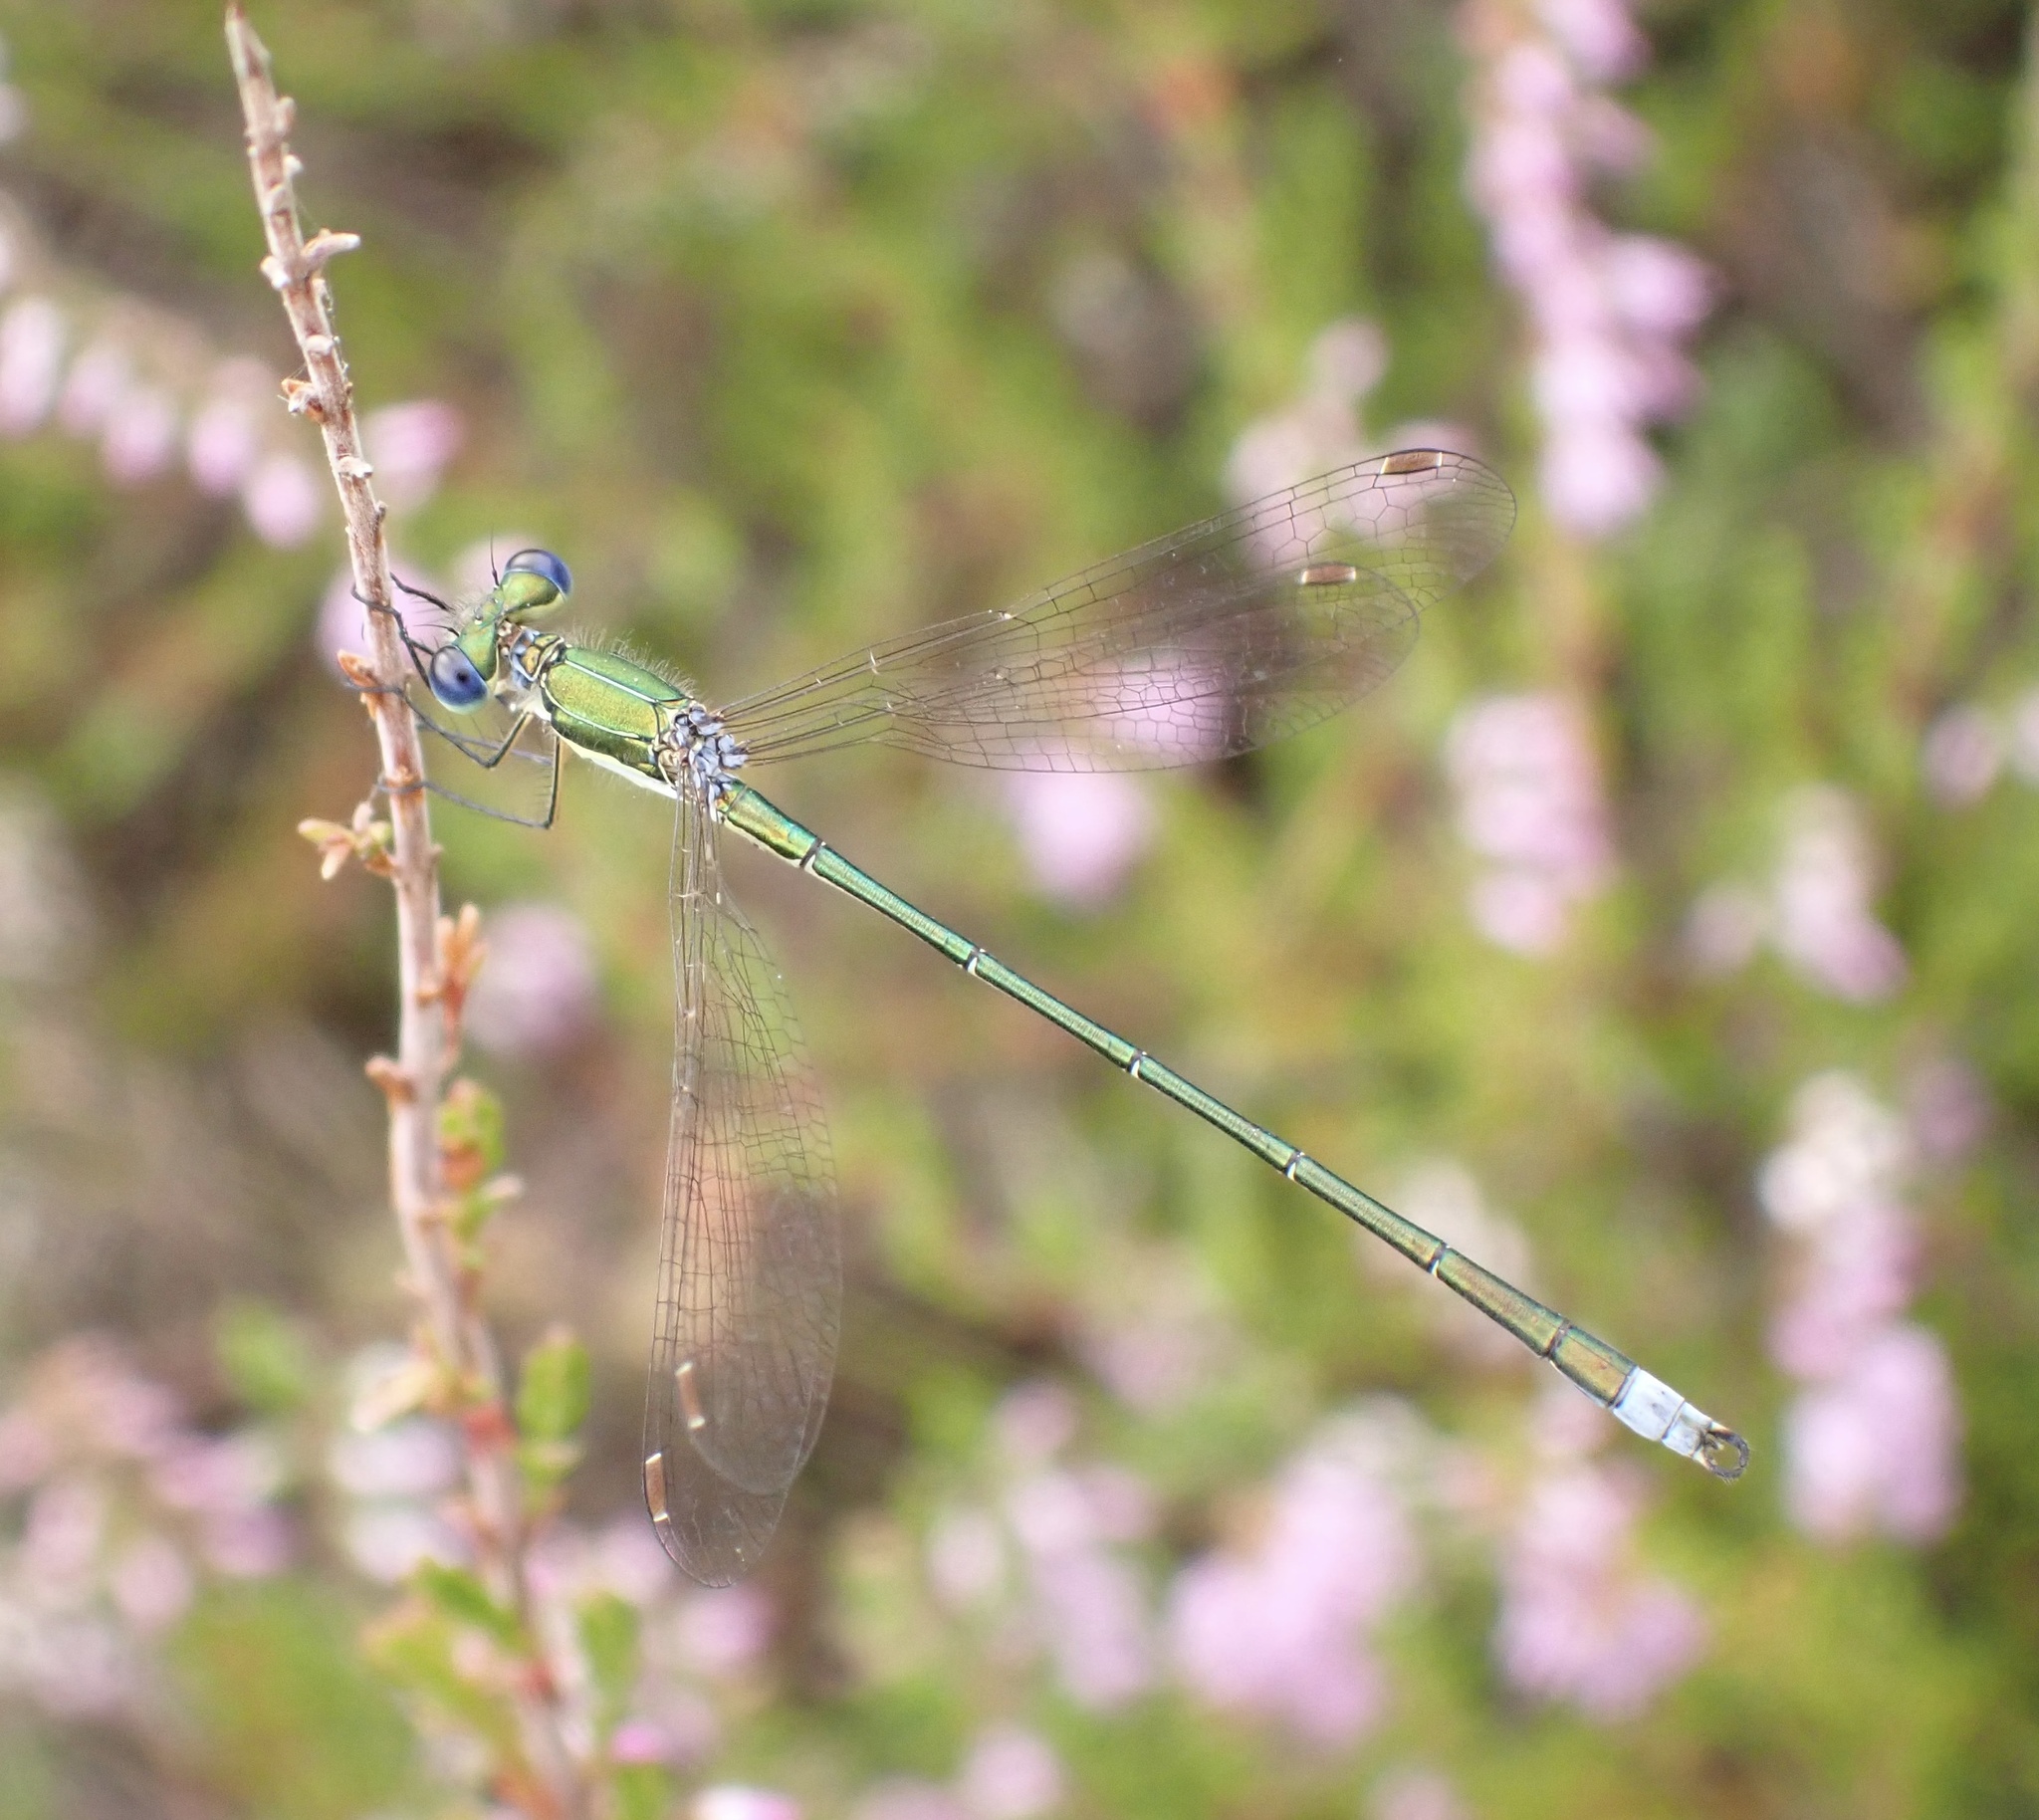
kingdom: Animalia
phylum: Arthropoda
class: Insecta
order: Odonata
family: Lestidae
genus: Lestes
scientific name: Lestes virens
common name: Small emerald spreadwing
